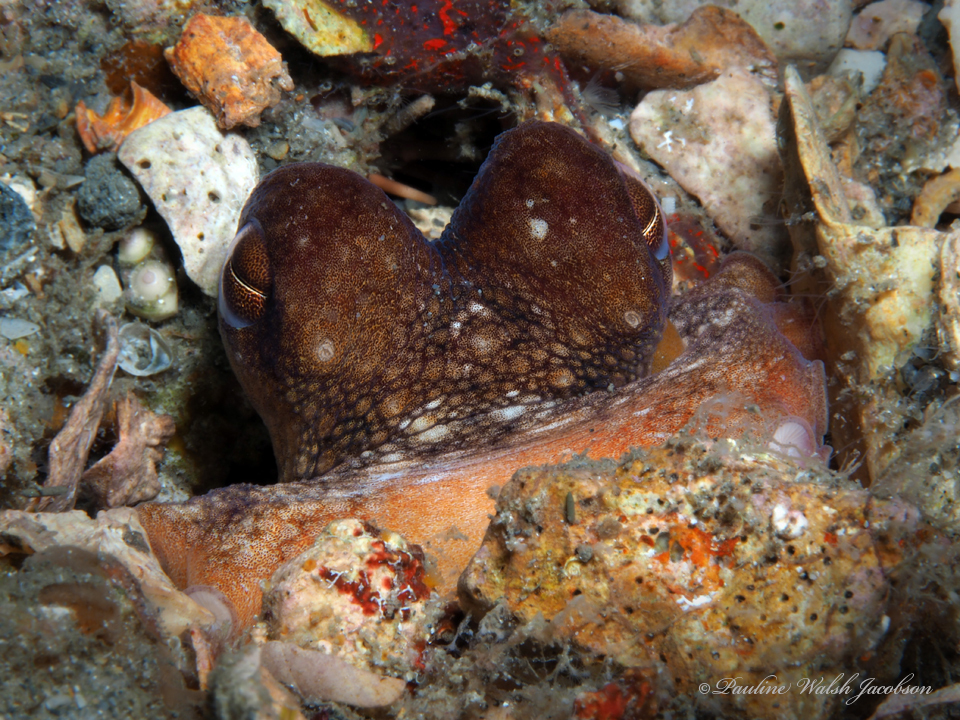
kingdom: Animalia
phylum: Mollusca
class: Cephalopoda
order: Octopoda
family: Octopodidae
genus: Octopus
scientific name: Octopus americanus
